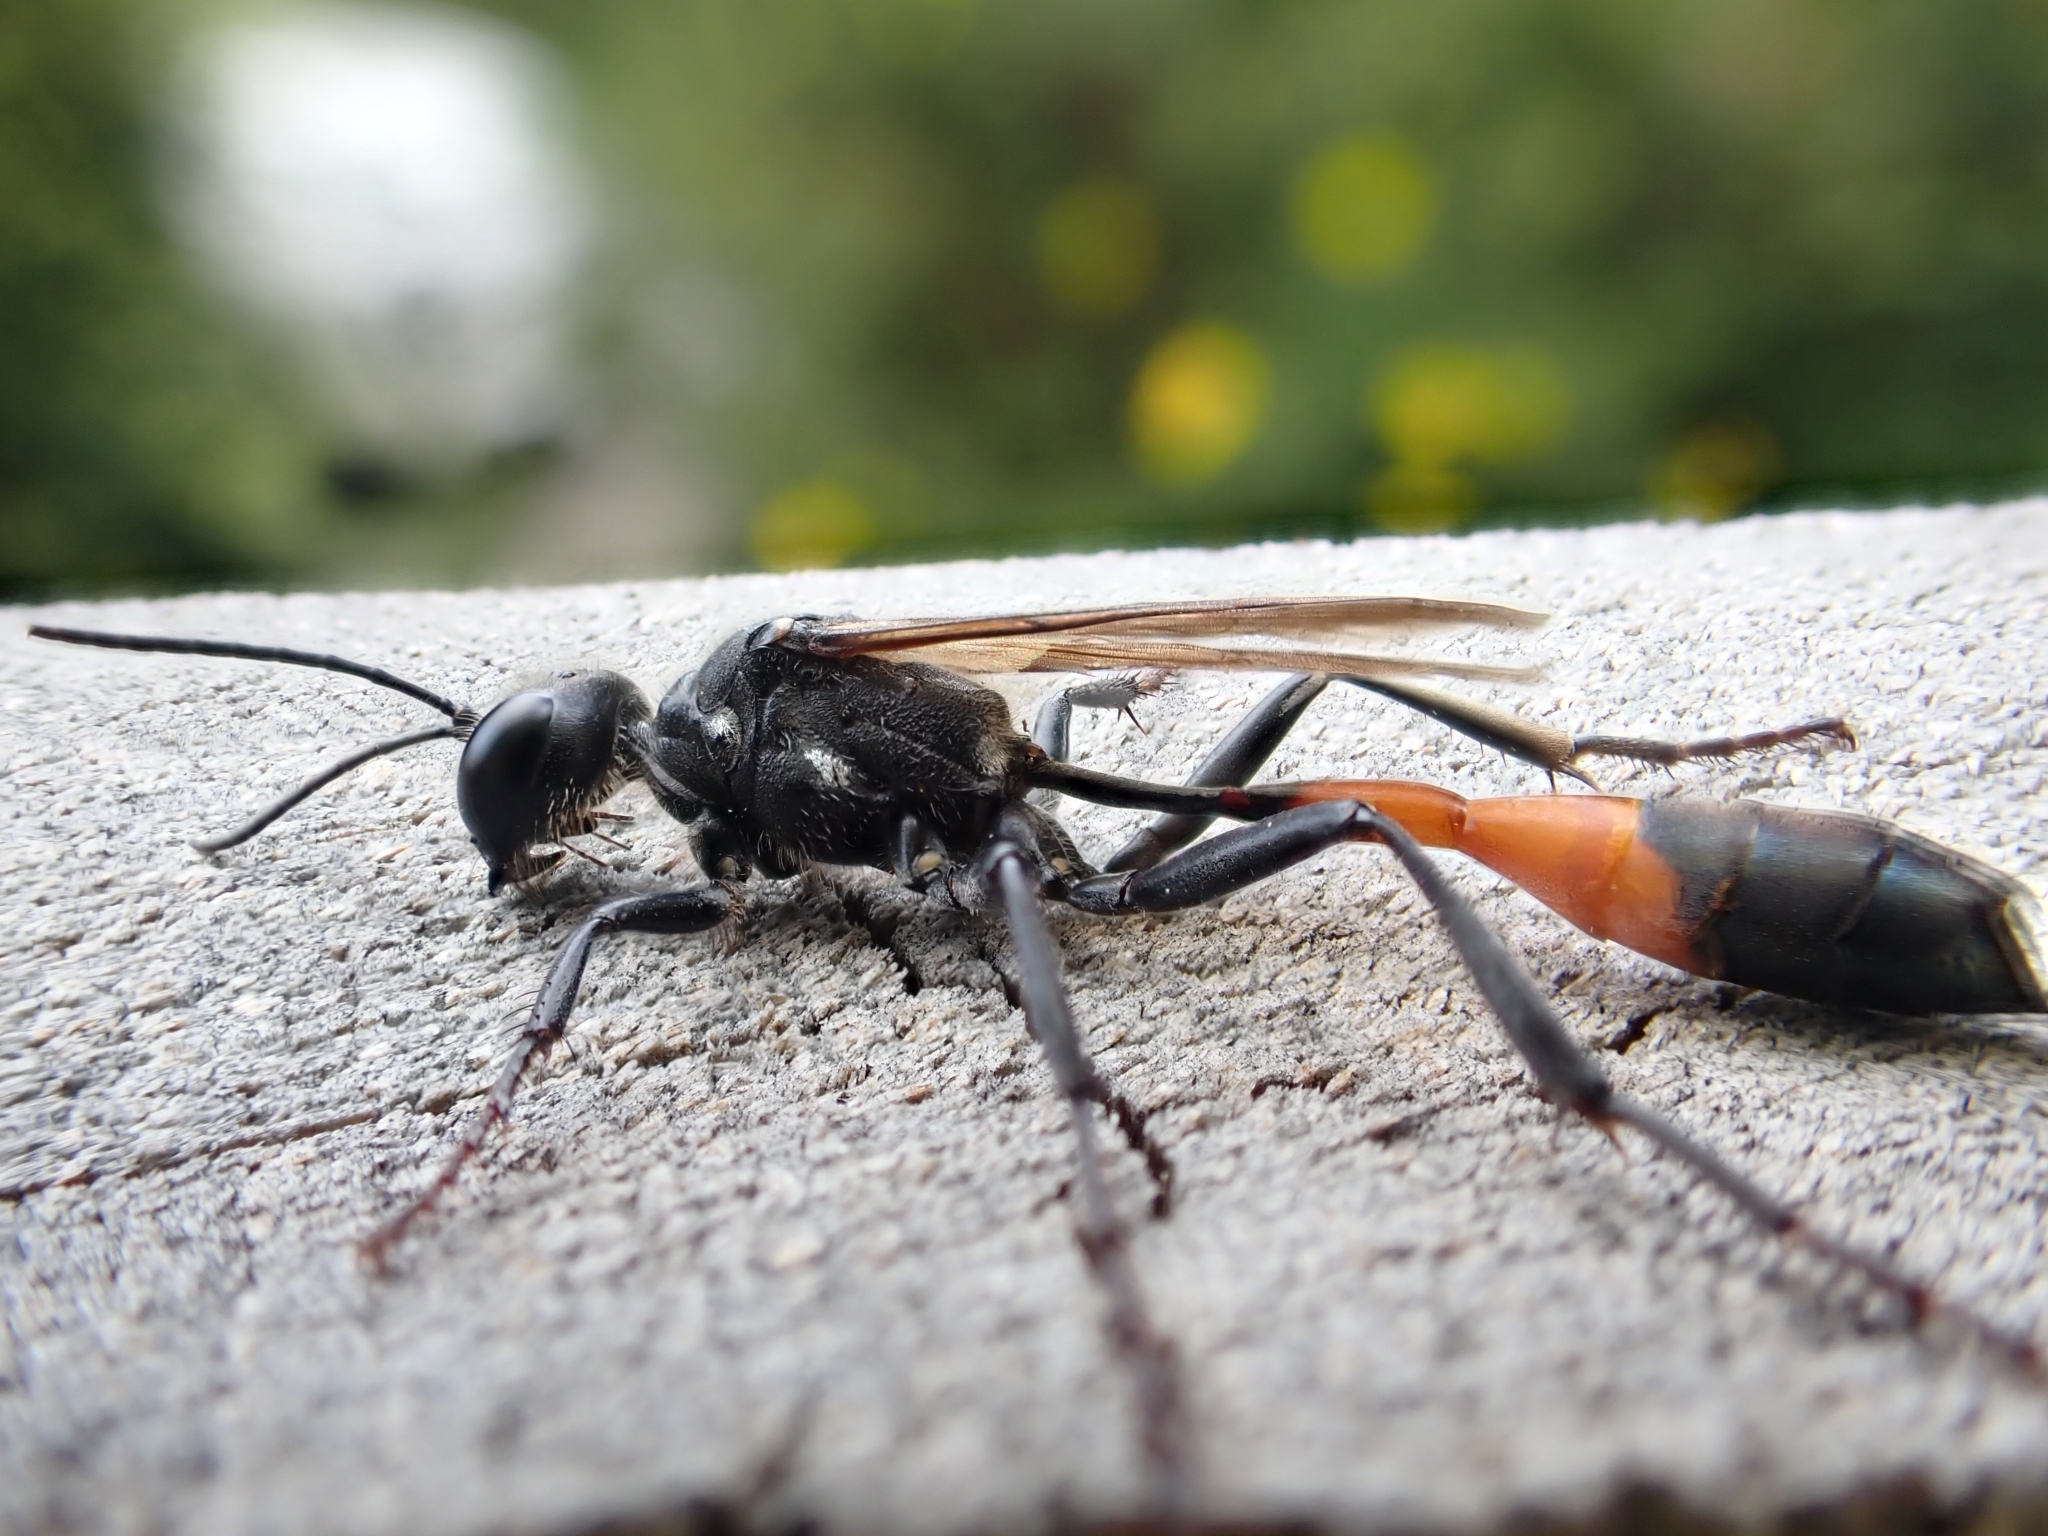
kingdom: Animalia
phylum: Arthropoda
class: Insecta
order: Hymenoptera
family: Sphecidae
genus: Ammophila
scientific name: Ammophila sabulosa
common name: Red banded sand wasp
